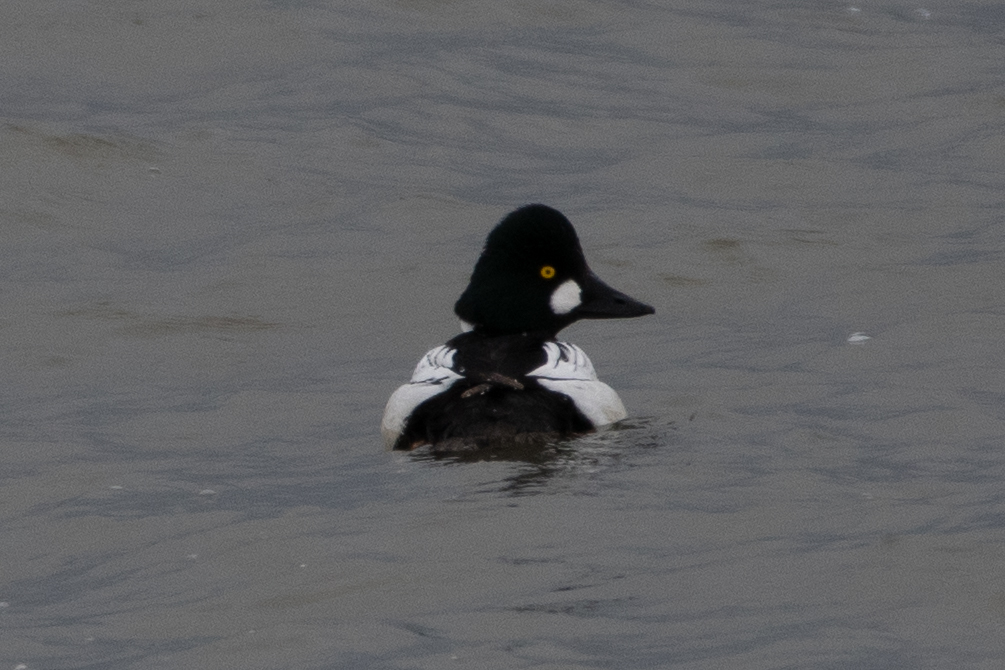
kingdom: Animalia
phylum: Chordata
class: Aves
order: Anseriformes
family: Anatidae
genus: Bucephala
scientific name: Bucephala clangula
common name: Common goldeneye
